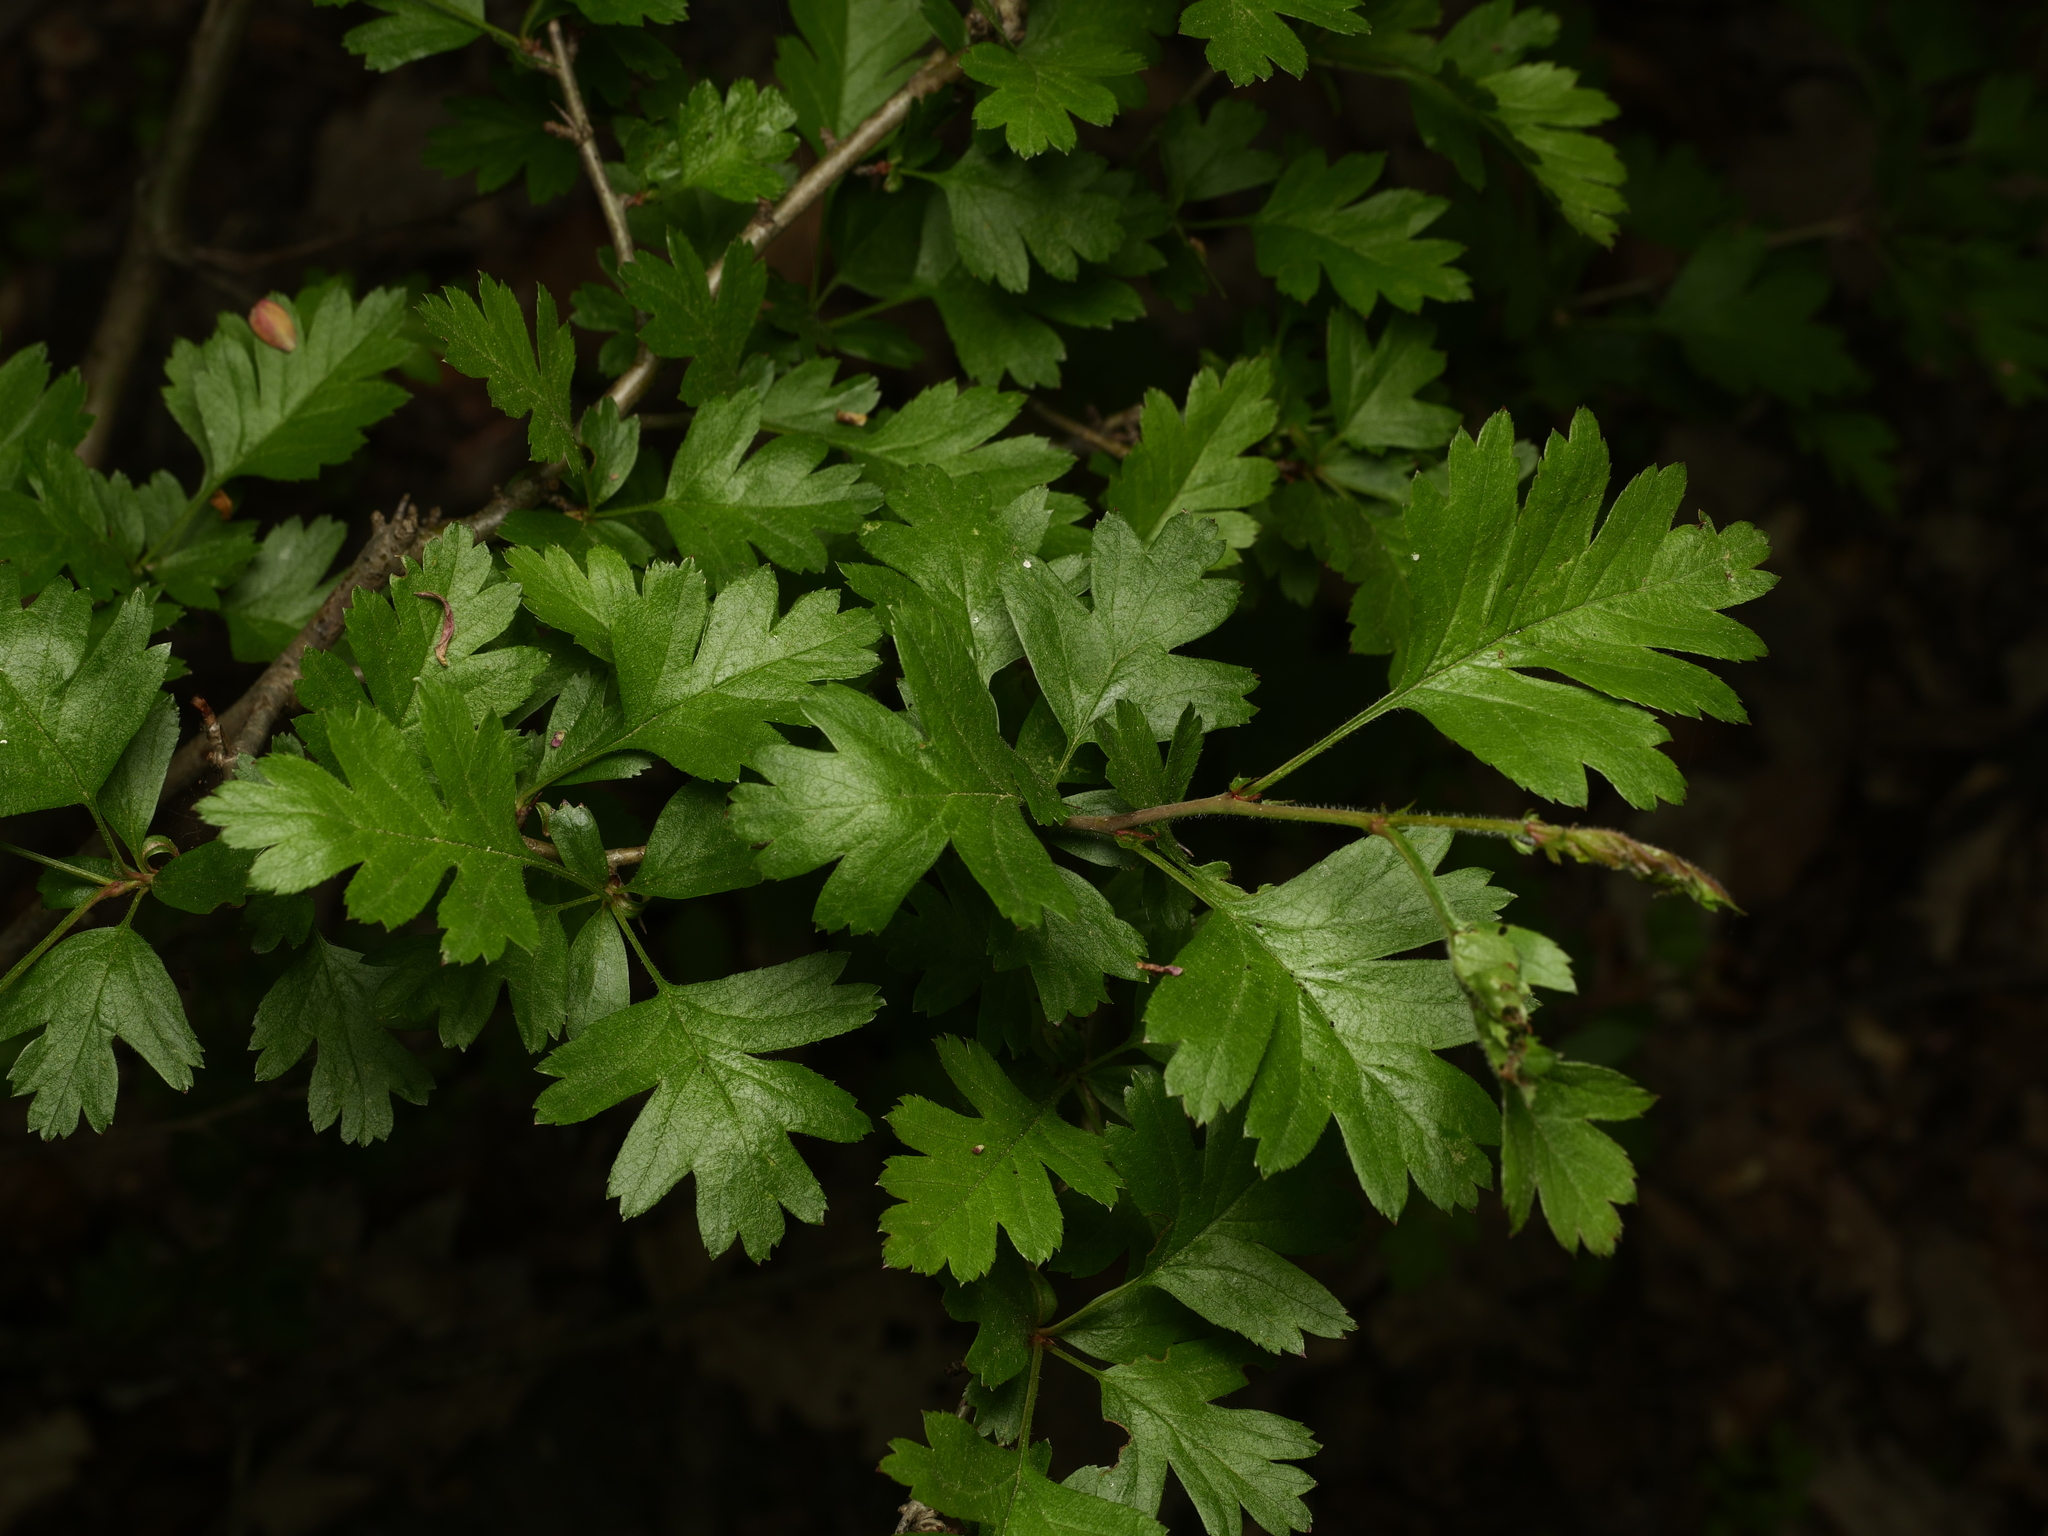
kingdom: Plantae
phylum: Tracheophyta
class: Magnoliopsida
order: Rosales
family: Rosaceae
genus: Crataegus
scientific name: Crataegus monogyna
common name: Hawthorn
